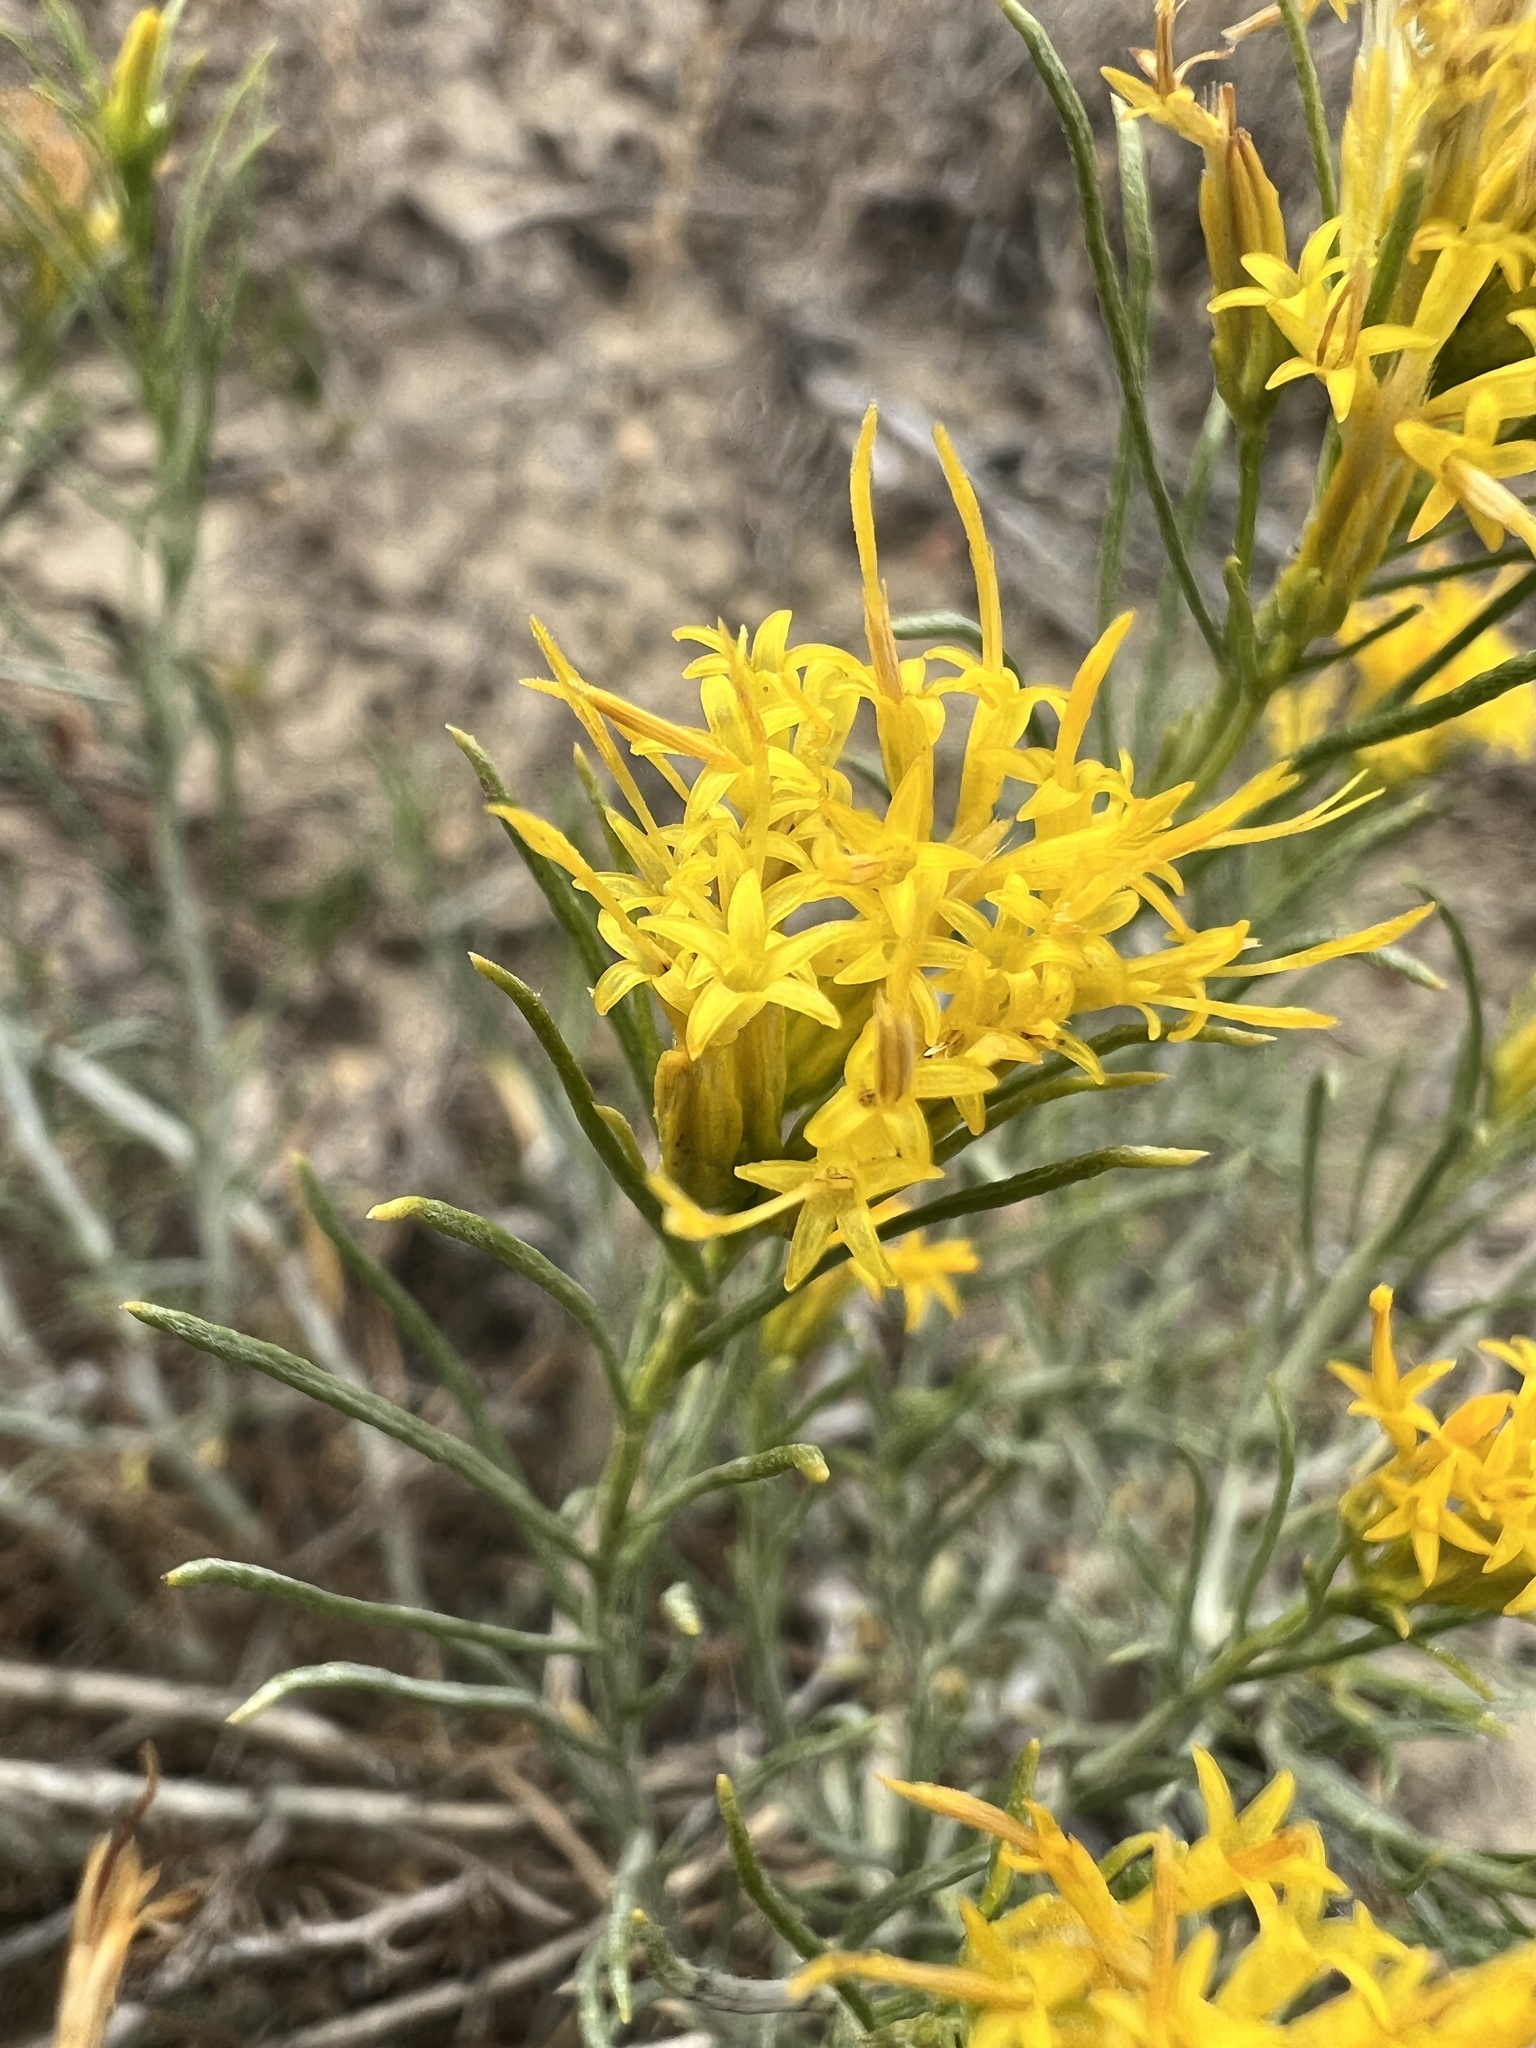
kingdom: Plantae
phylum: Tracheophyta
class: Magnoliopsida
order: Asterales
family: Asteraceae
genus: Ericameria
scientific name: Ericameria nauseosa
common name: Rubber rabbitbrush
